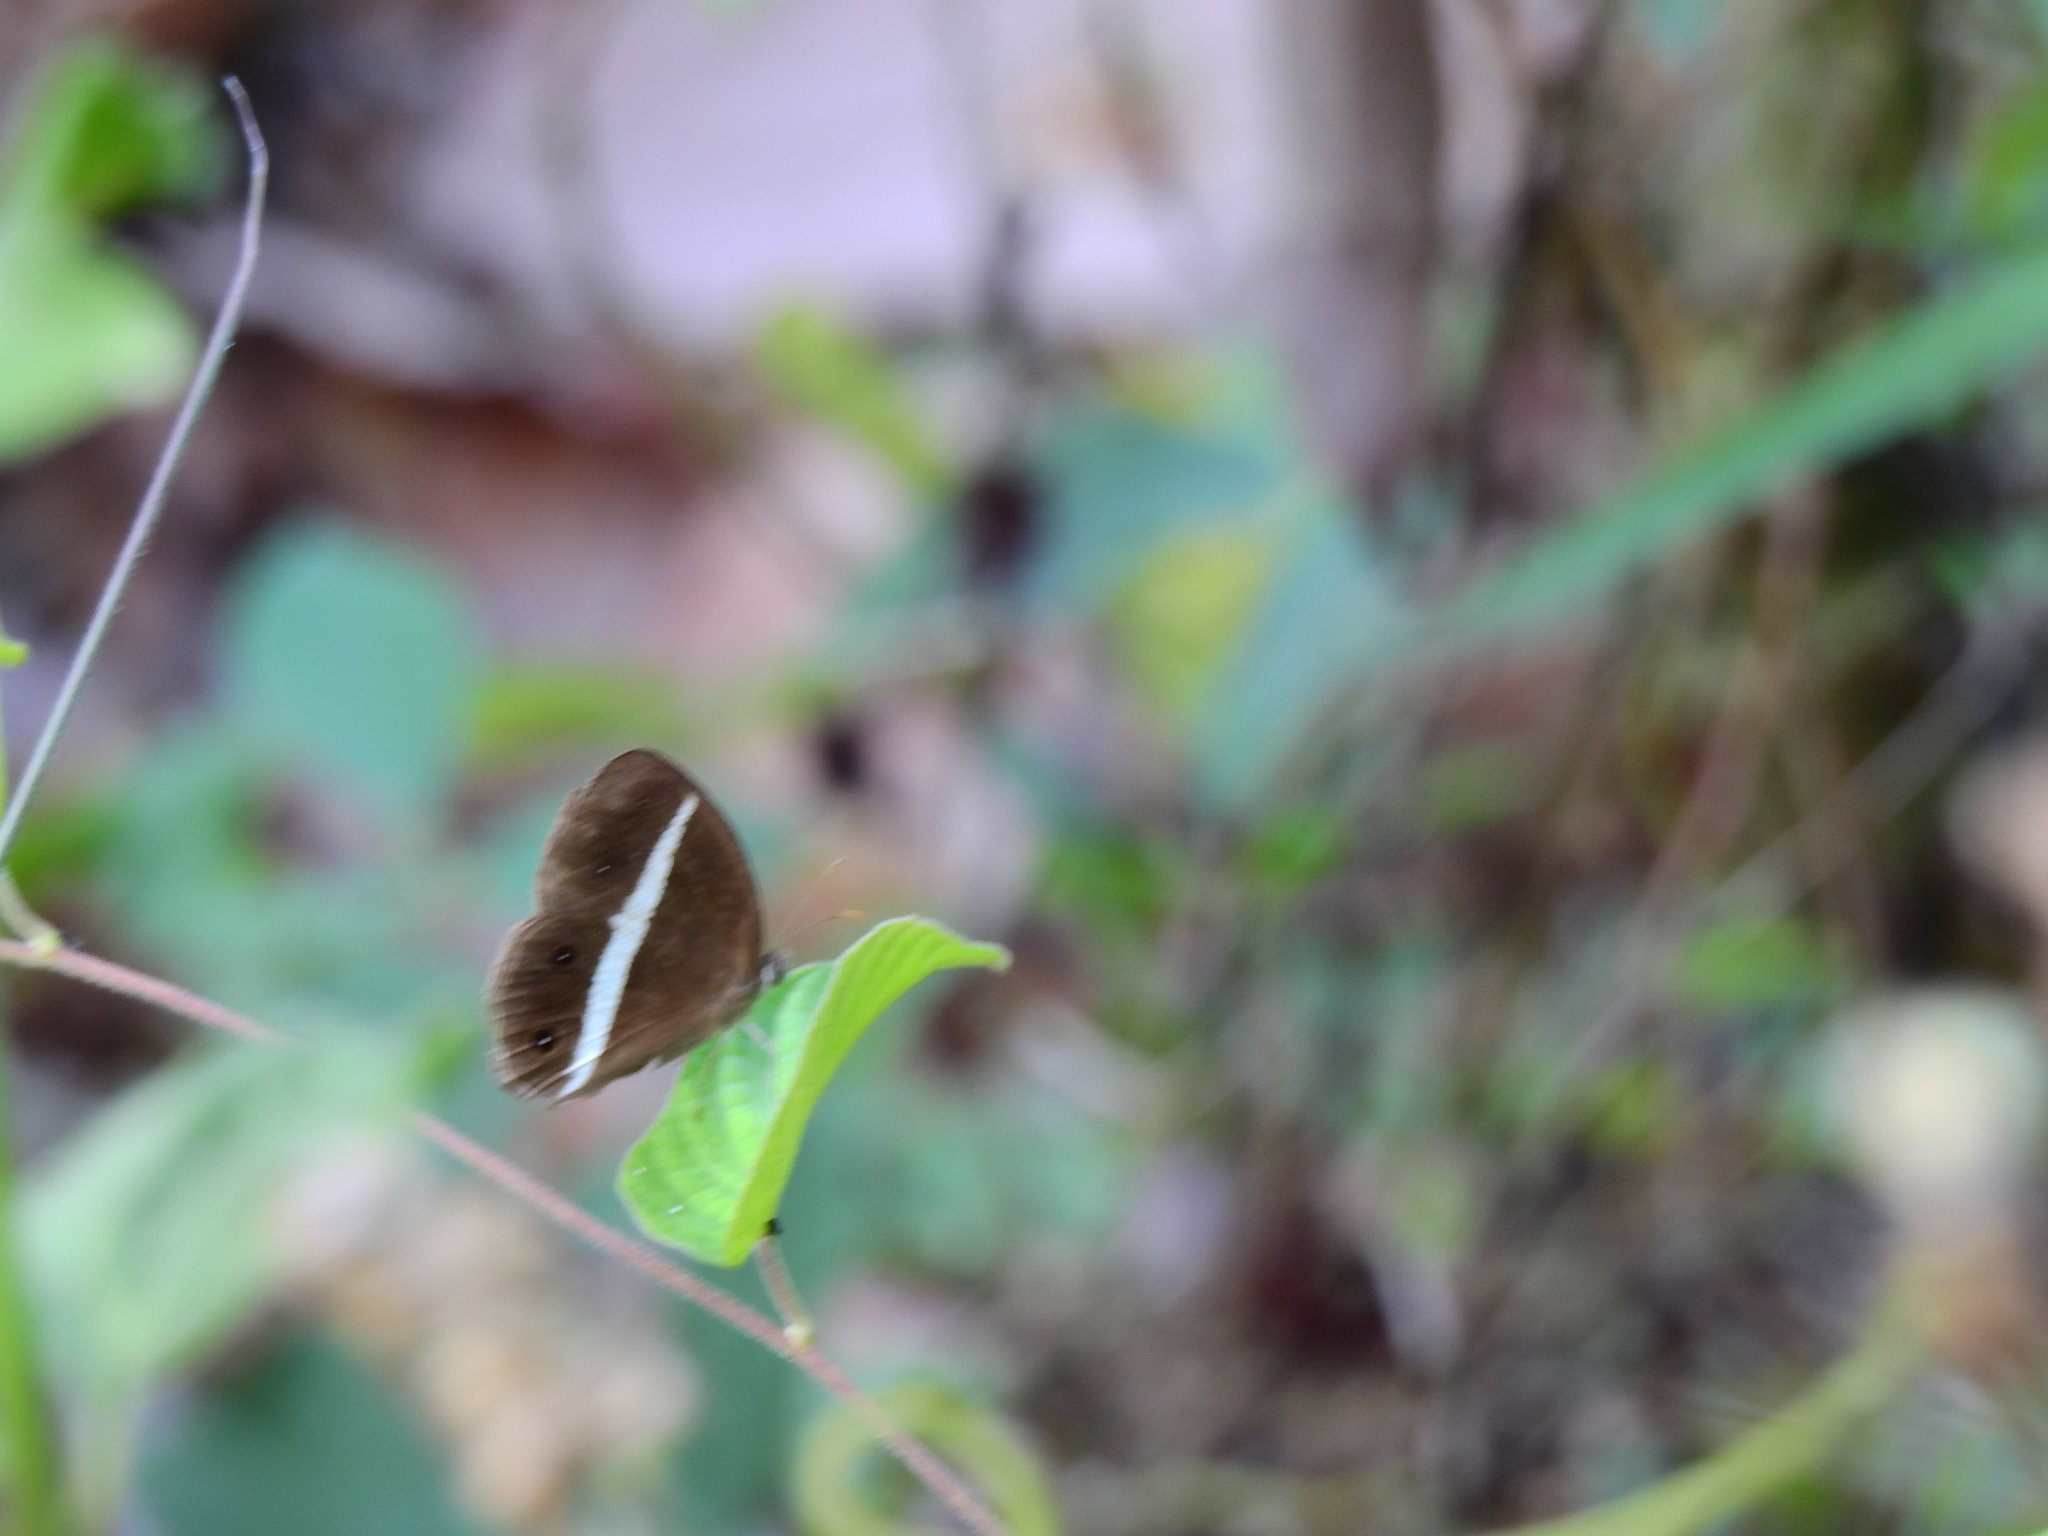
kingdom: Animalia
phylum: Arthropoda
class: Insecta
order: Lepidoptera
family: Nymphalidae
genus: Orsotriaena
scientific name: Orsotriaena medus
